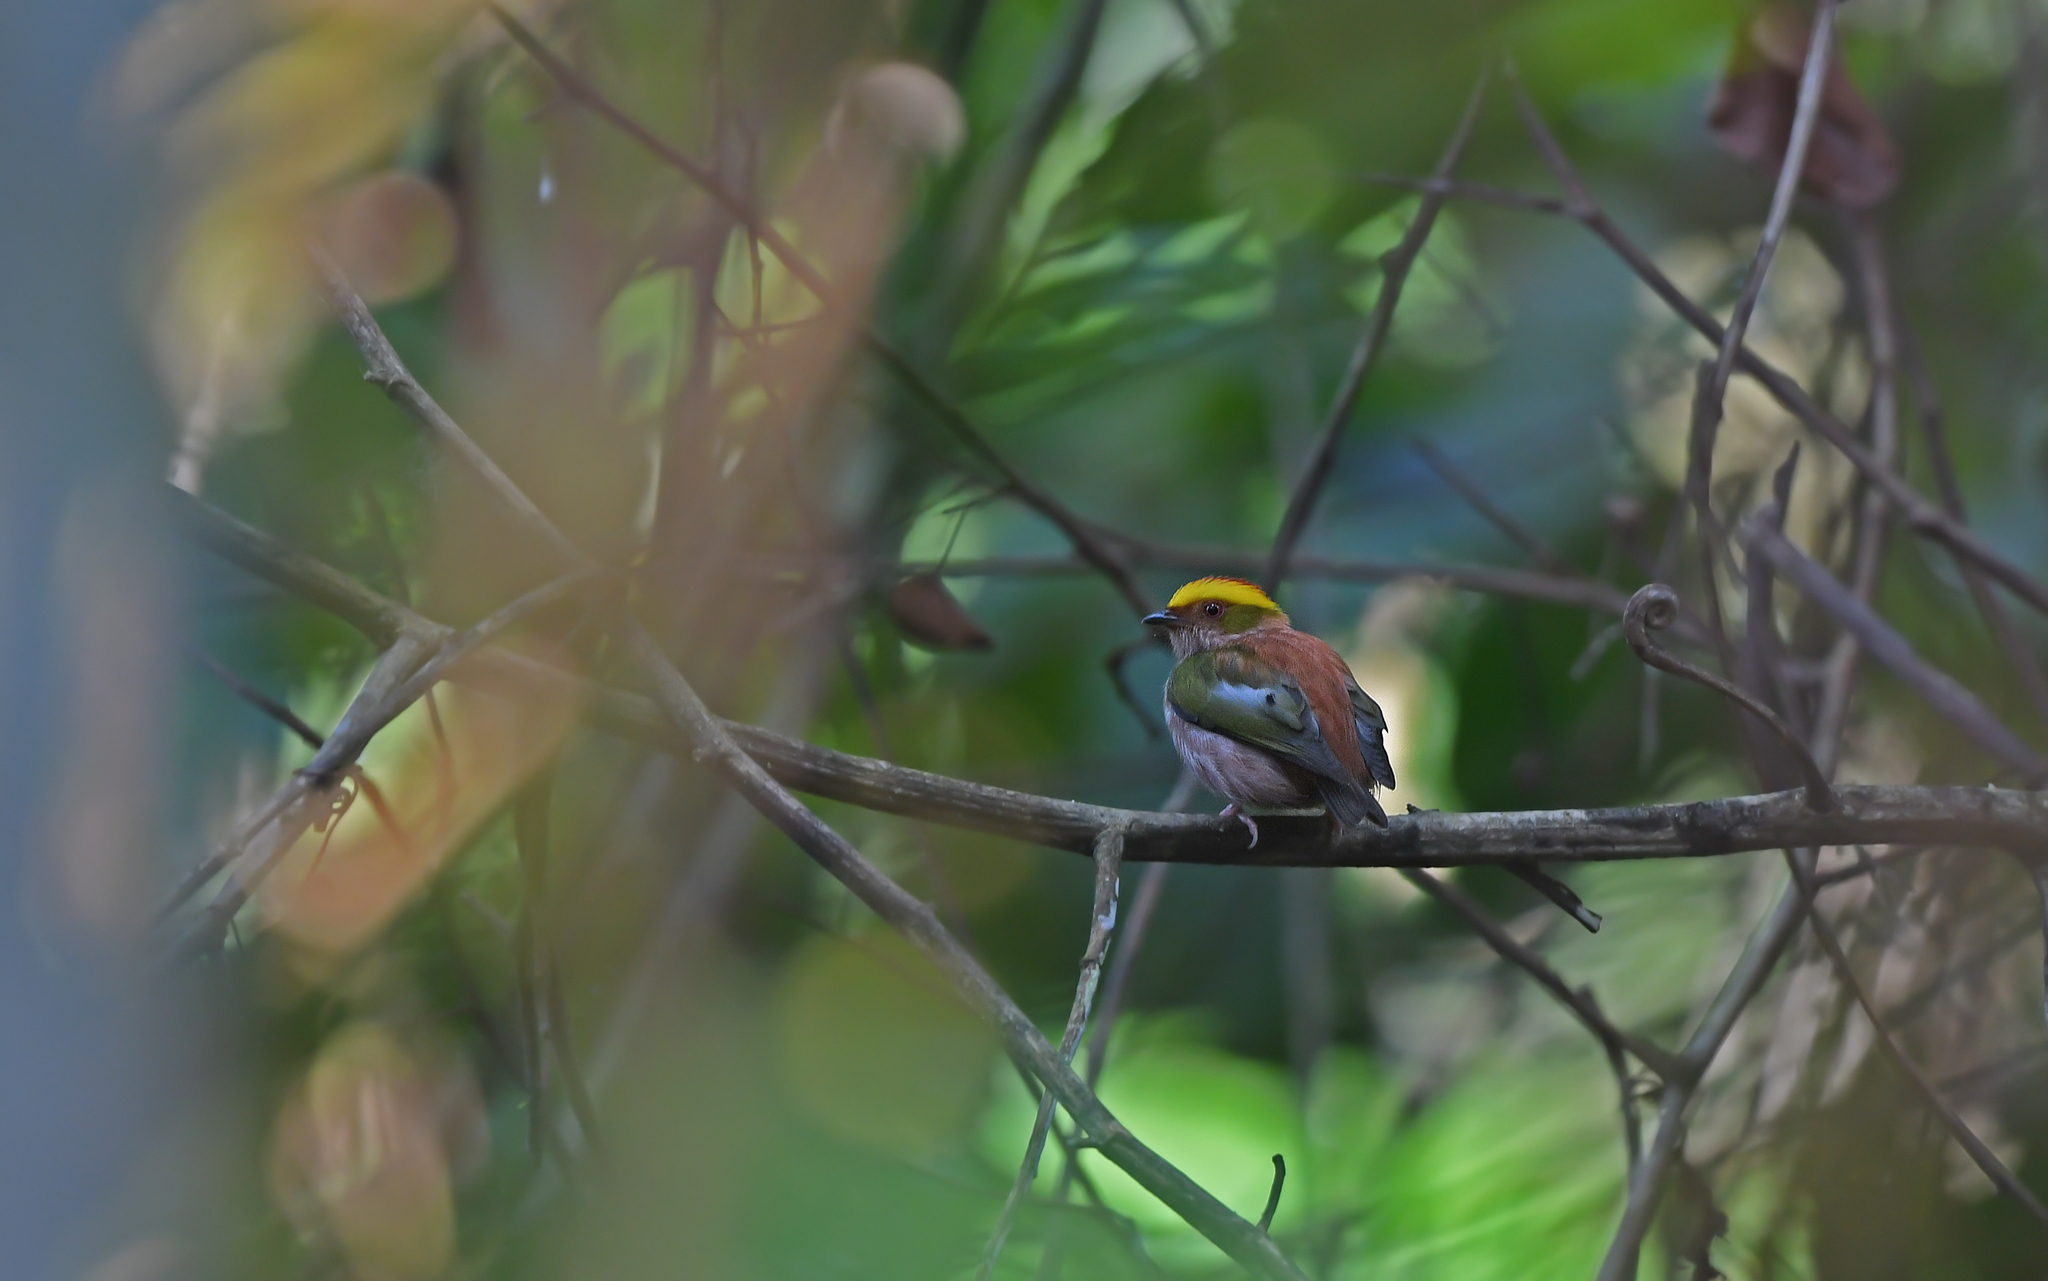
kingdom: Animalia
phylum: Chordata
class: Aves
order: Passeriformes
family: Pipridae
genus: Machaeropterus
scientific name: Machaeropterus pyrocephalus
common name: Fiery-capped manakin
